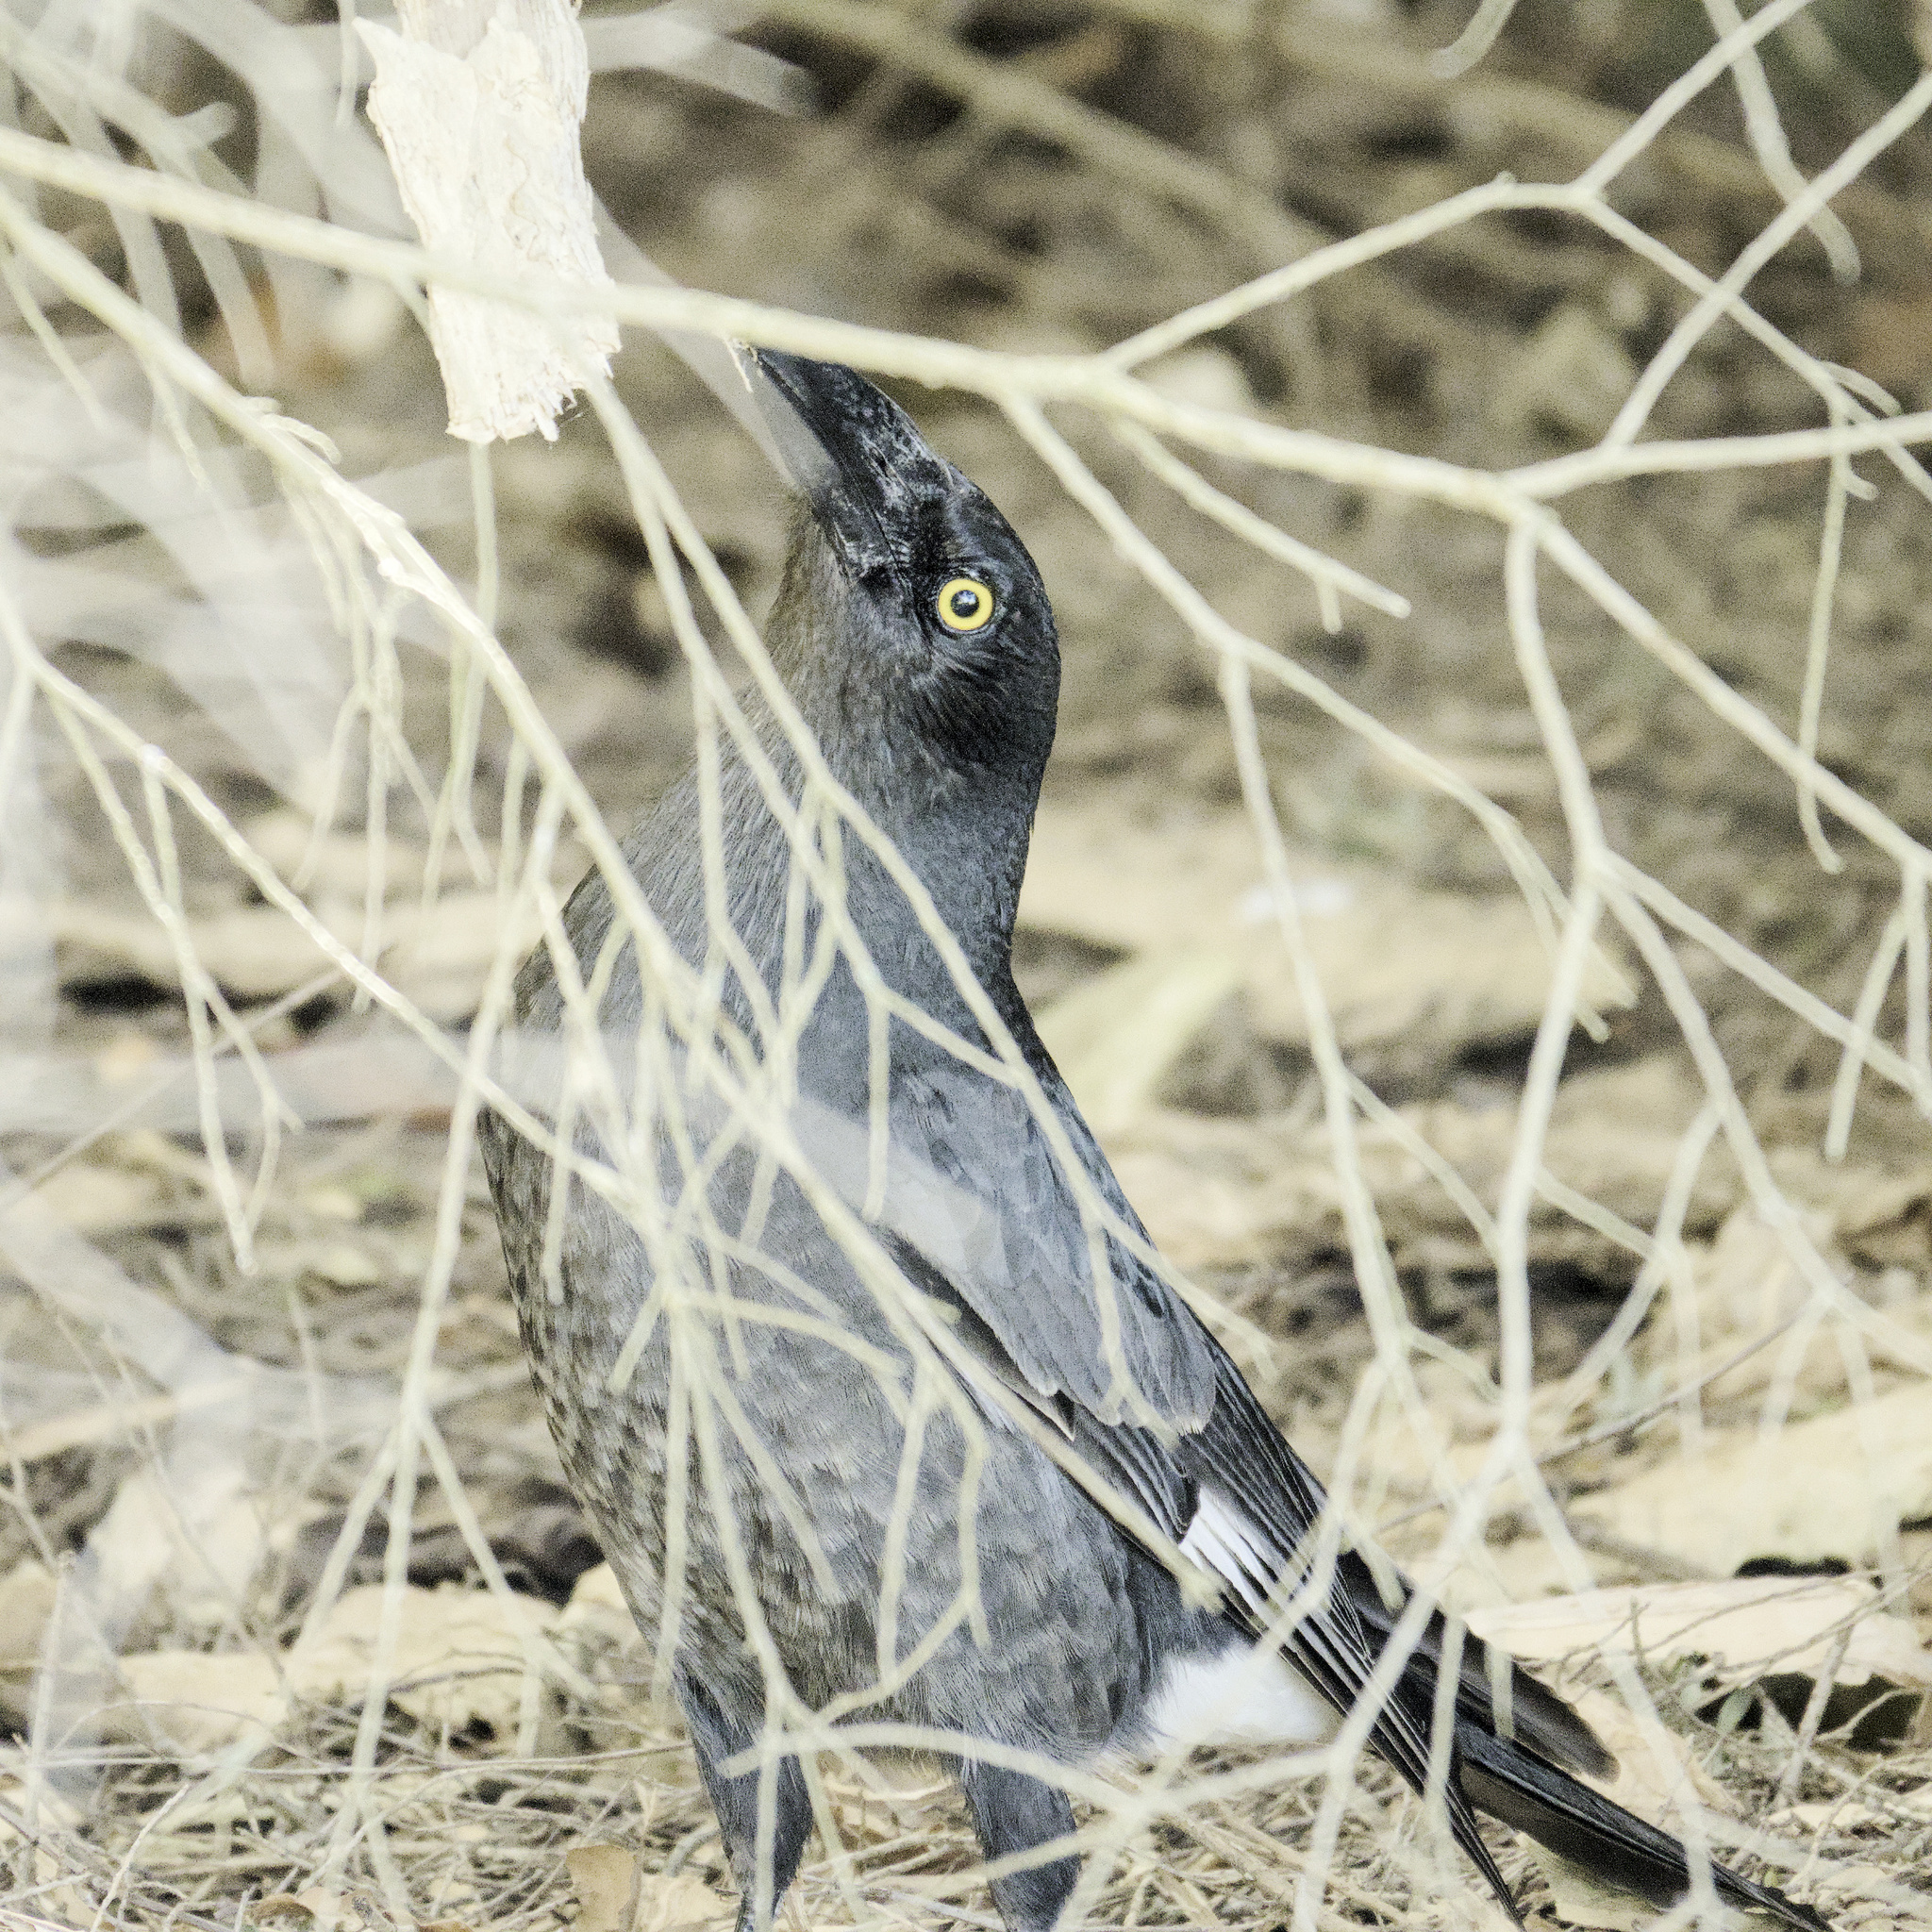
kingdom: Animalia
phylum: Chordata
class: Aves
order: Passeriformes
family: Cracticidae
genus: Strepera
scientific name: Strepera graculina
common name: Pied currawong
